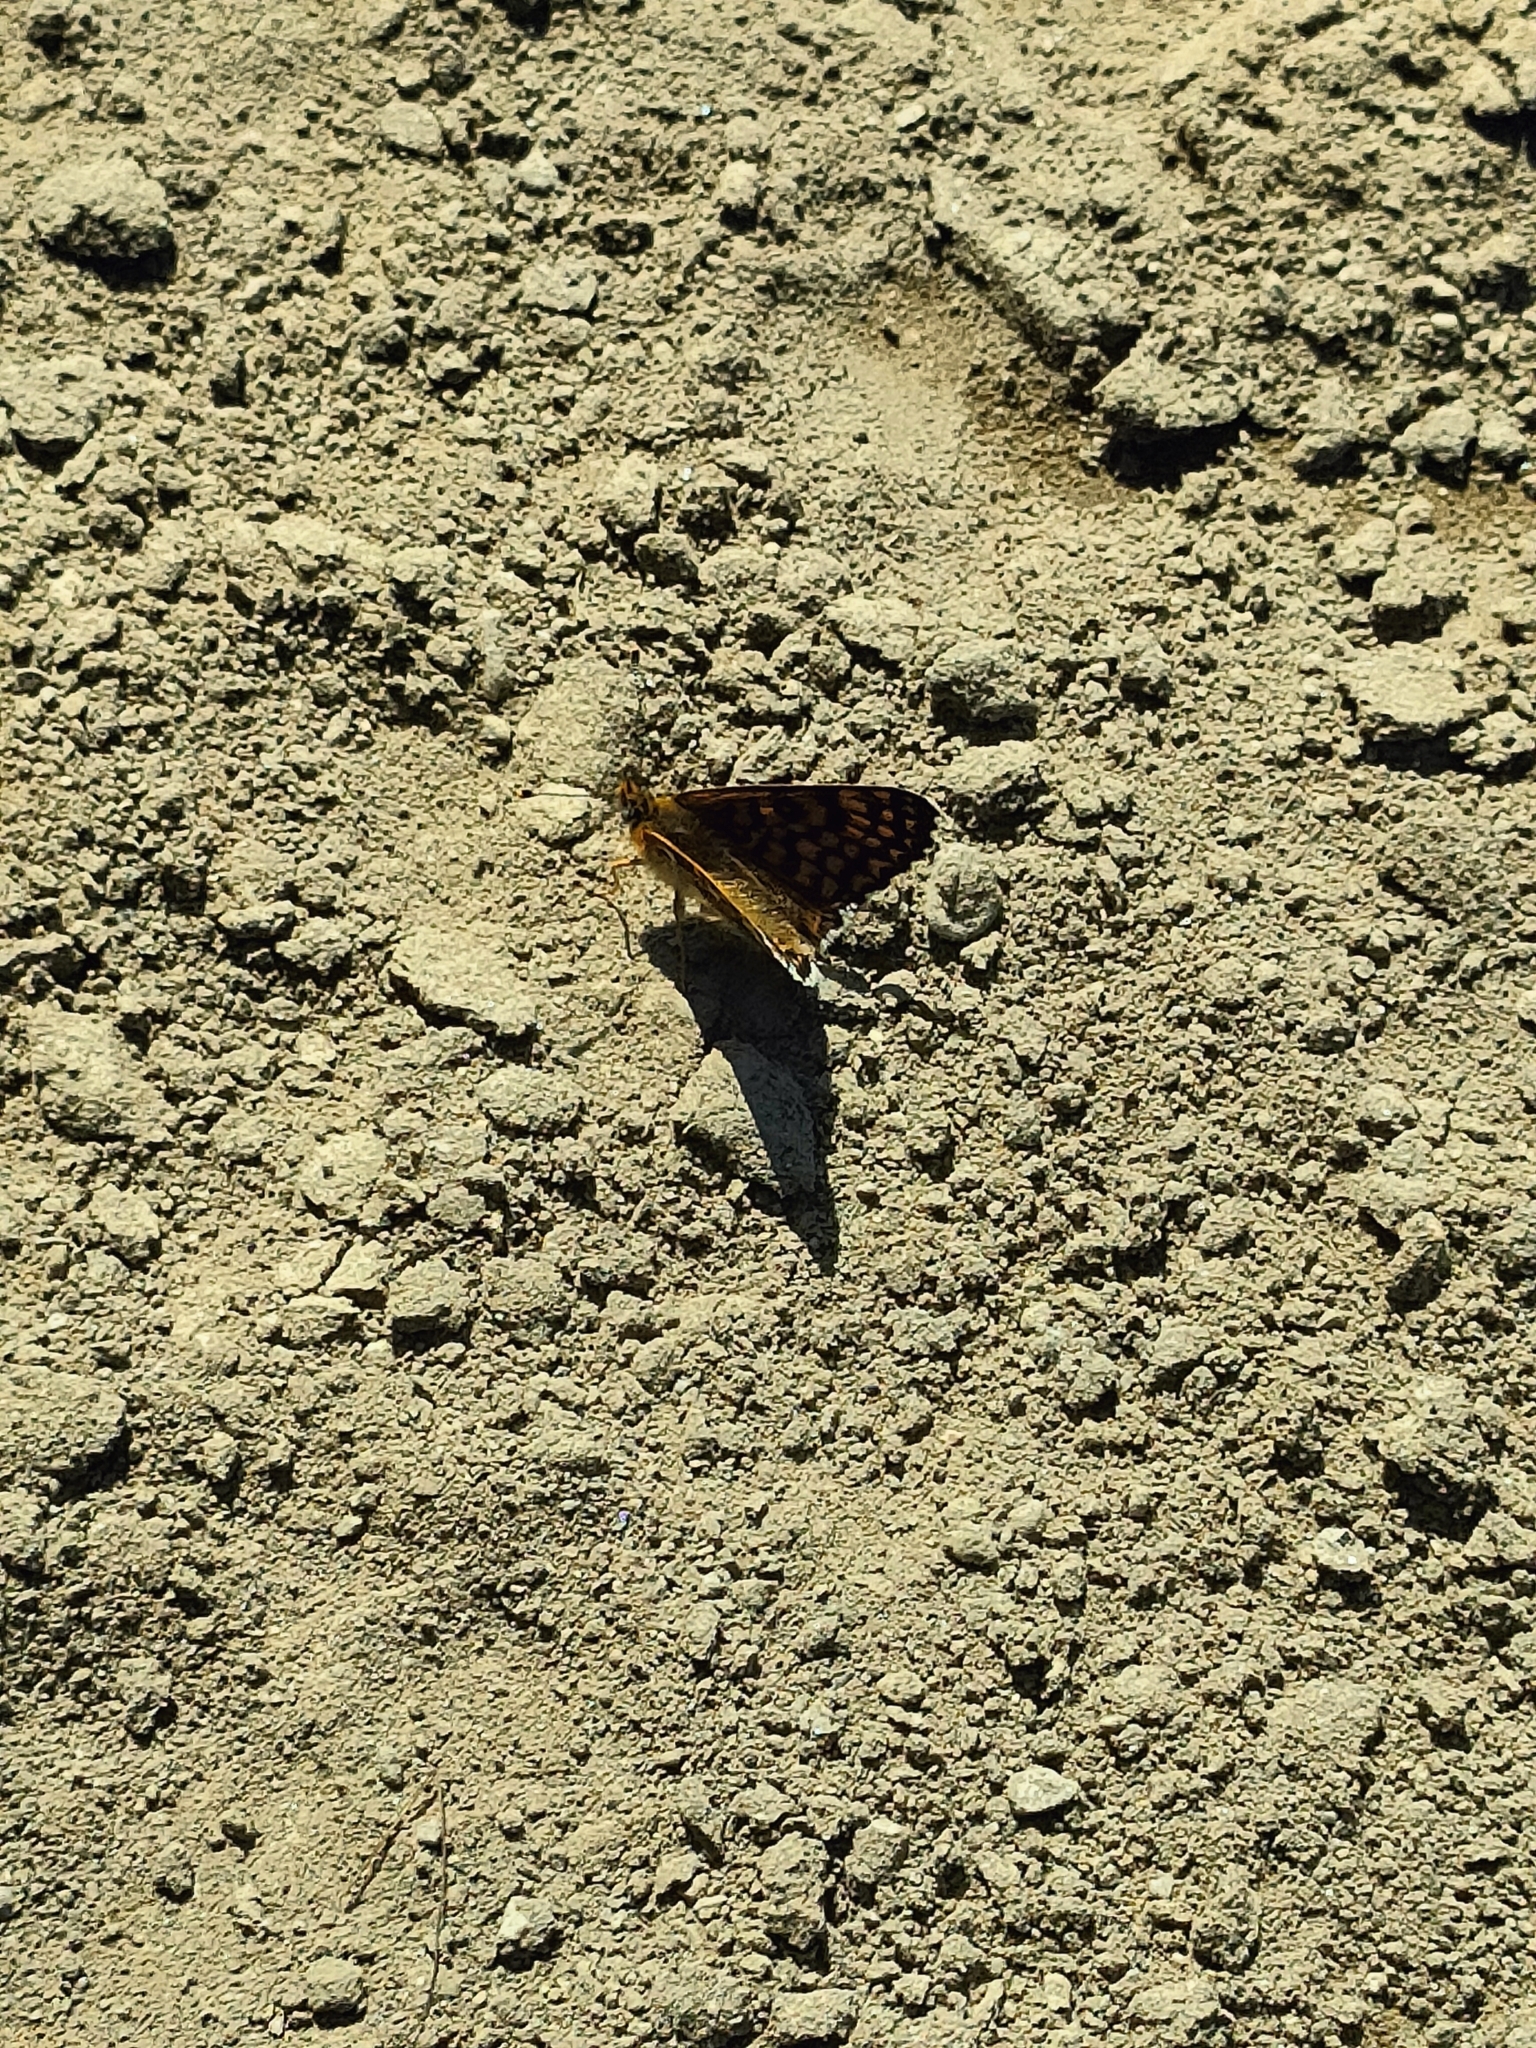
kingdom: Animalia
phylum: Arthropoda
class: Insecta
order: Lepidoptera
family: Nymphalidae
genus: Melitaea
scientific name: Melitaea cinxia
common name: Glanville fritillary
